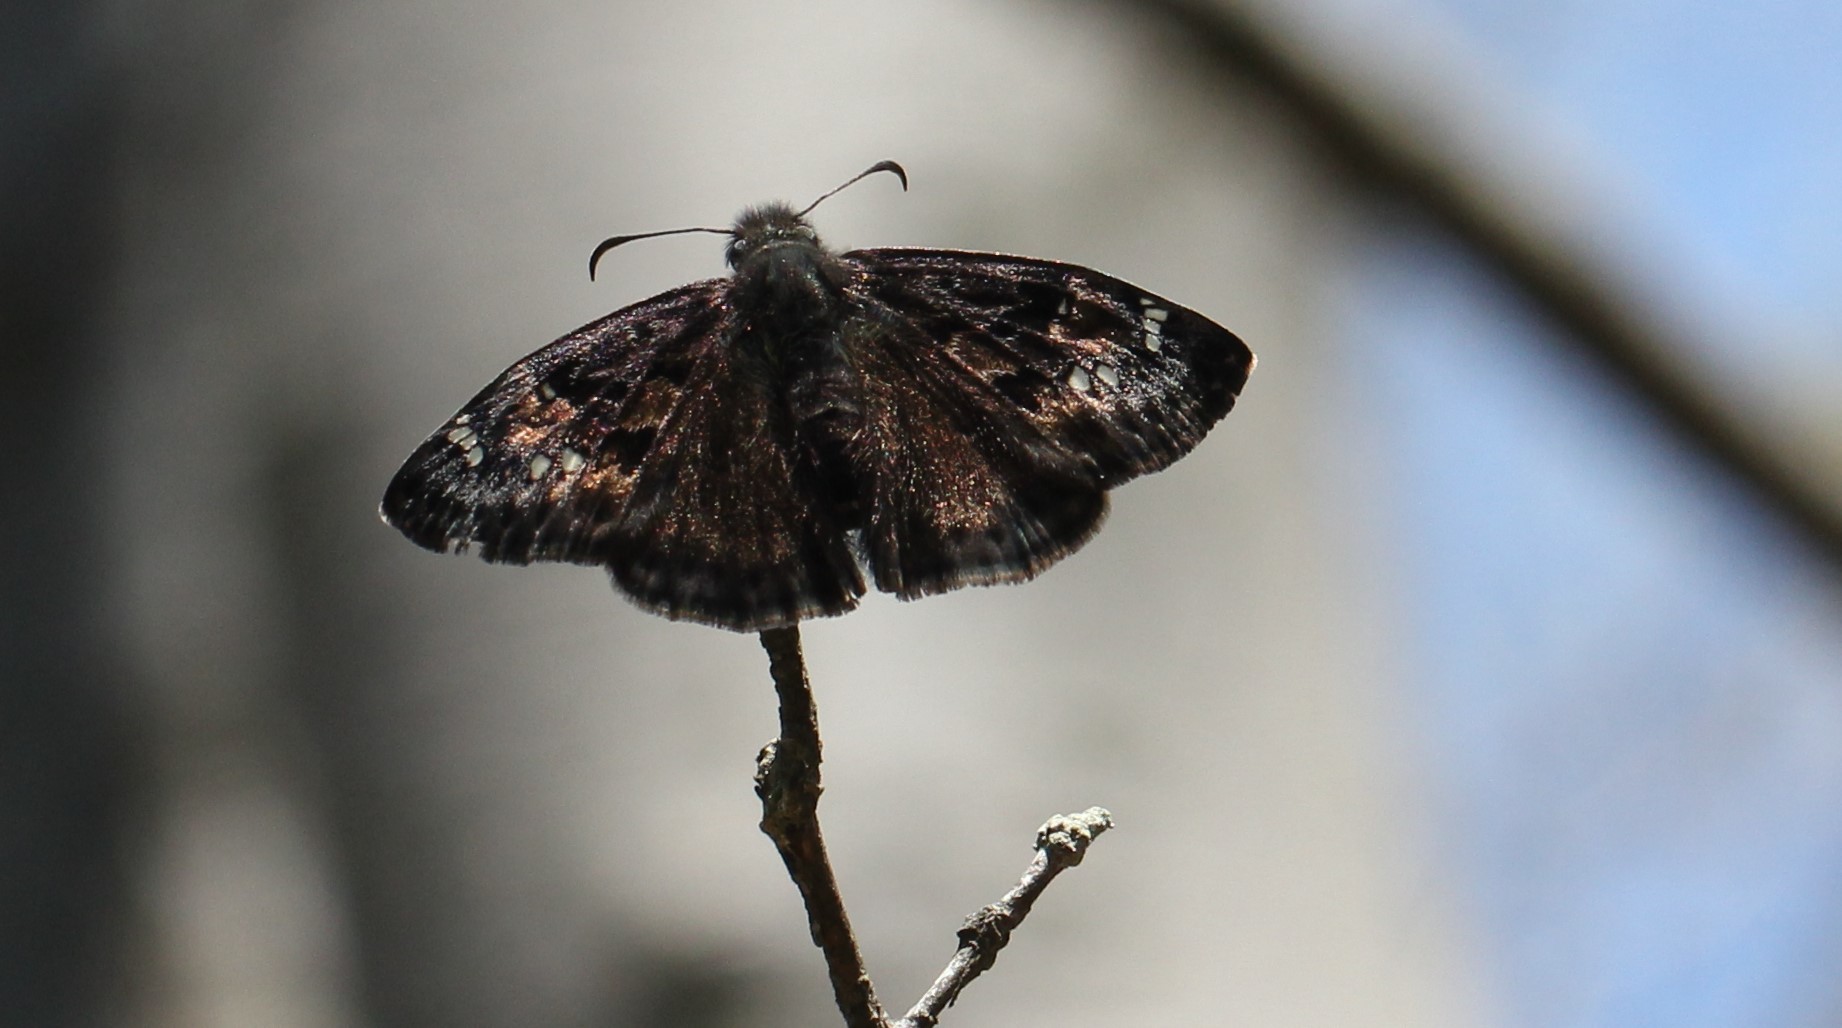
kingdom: Animalia
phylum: Arthropoda
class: Insecta
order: Lepidoptera
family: Hesperiidae
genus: Erynnis
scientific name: Erynnis juvenalis
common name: Juvenal's duskywing
